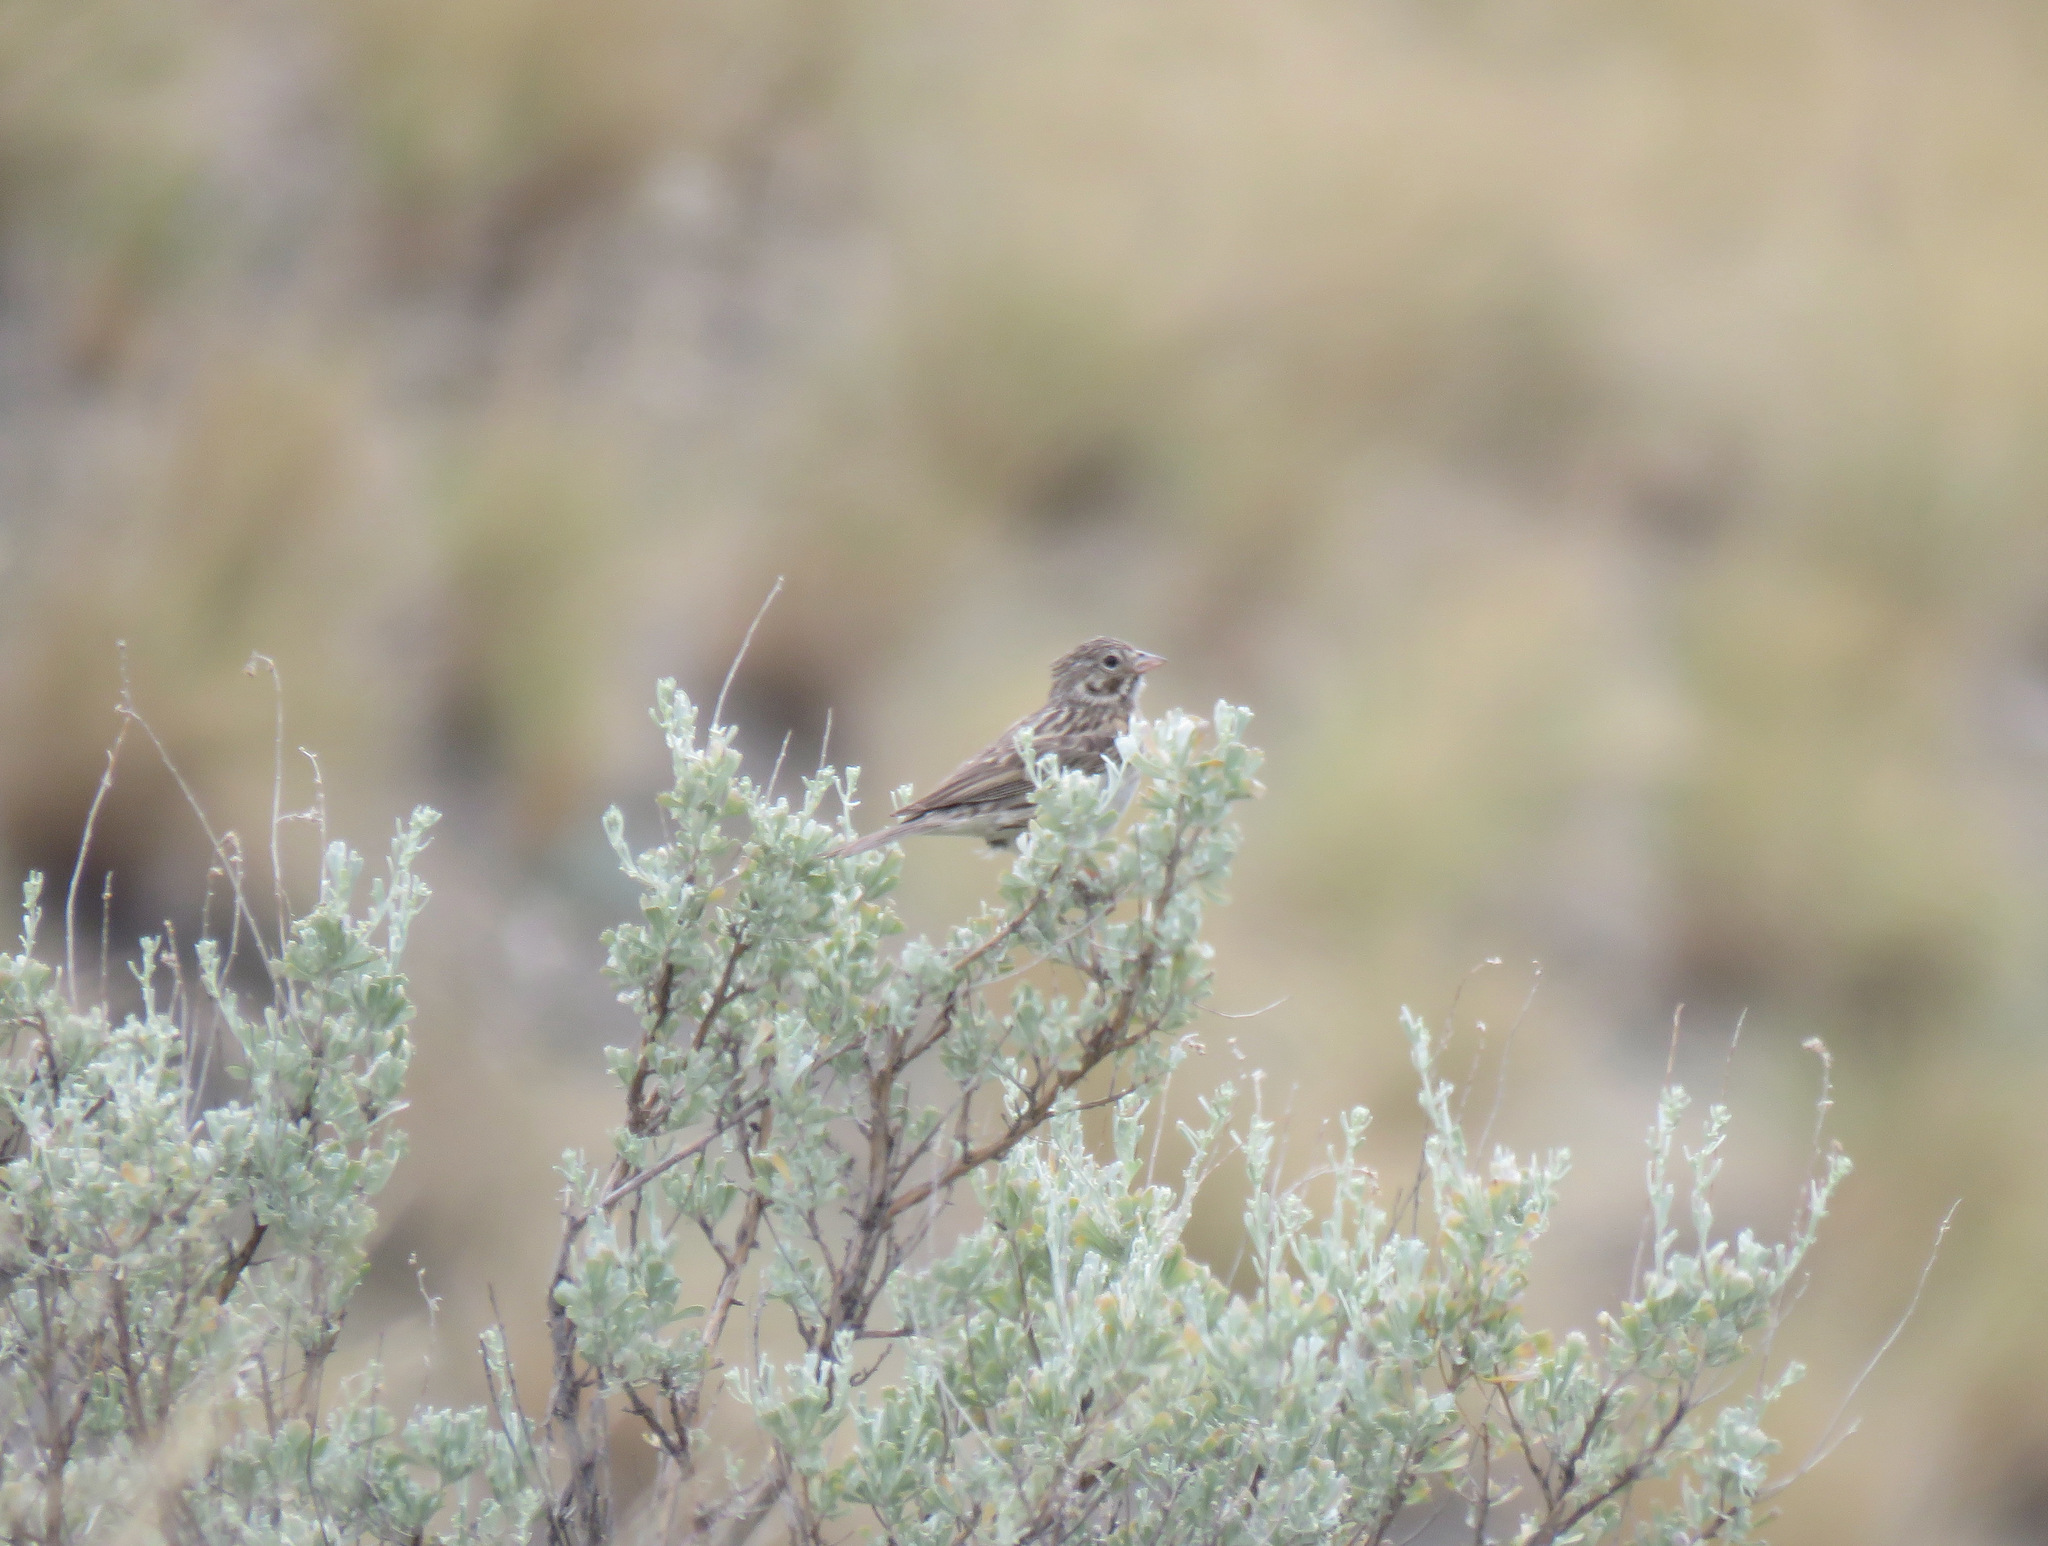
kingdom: Animalia
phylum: Chordata
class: Aves
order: Passeriformes
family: Passerellidae
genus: Pooecetes
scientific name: Pooecetes gramineus
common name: Vesper sparrow
